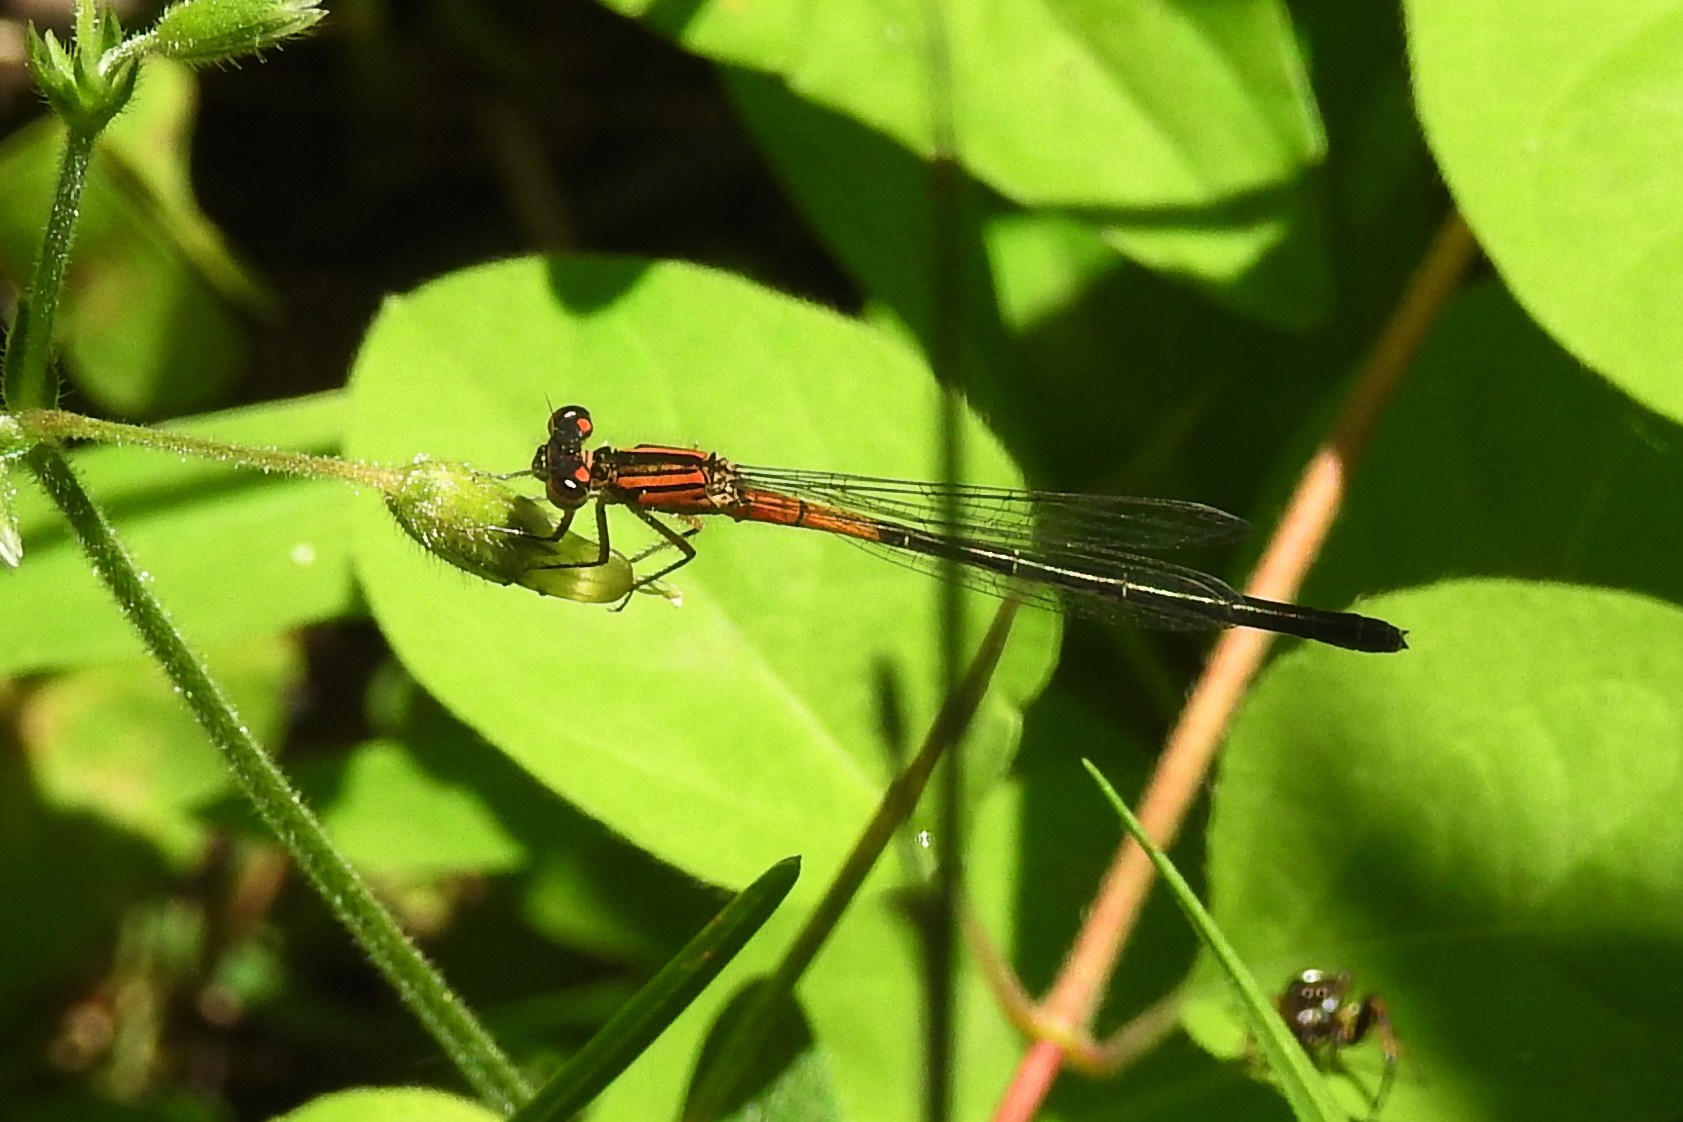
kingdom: Animalia
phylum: Arthropoda
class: Insecta
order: Odonata
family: Coenagrionidae
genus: Ischnura
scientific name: Ischnura verticalis
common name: Eastern forktail
